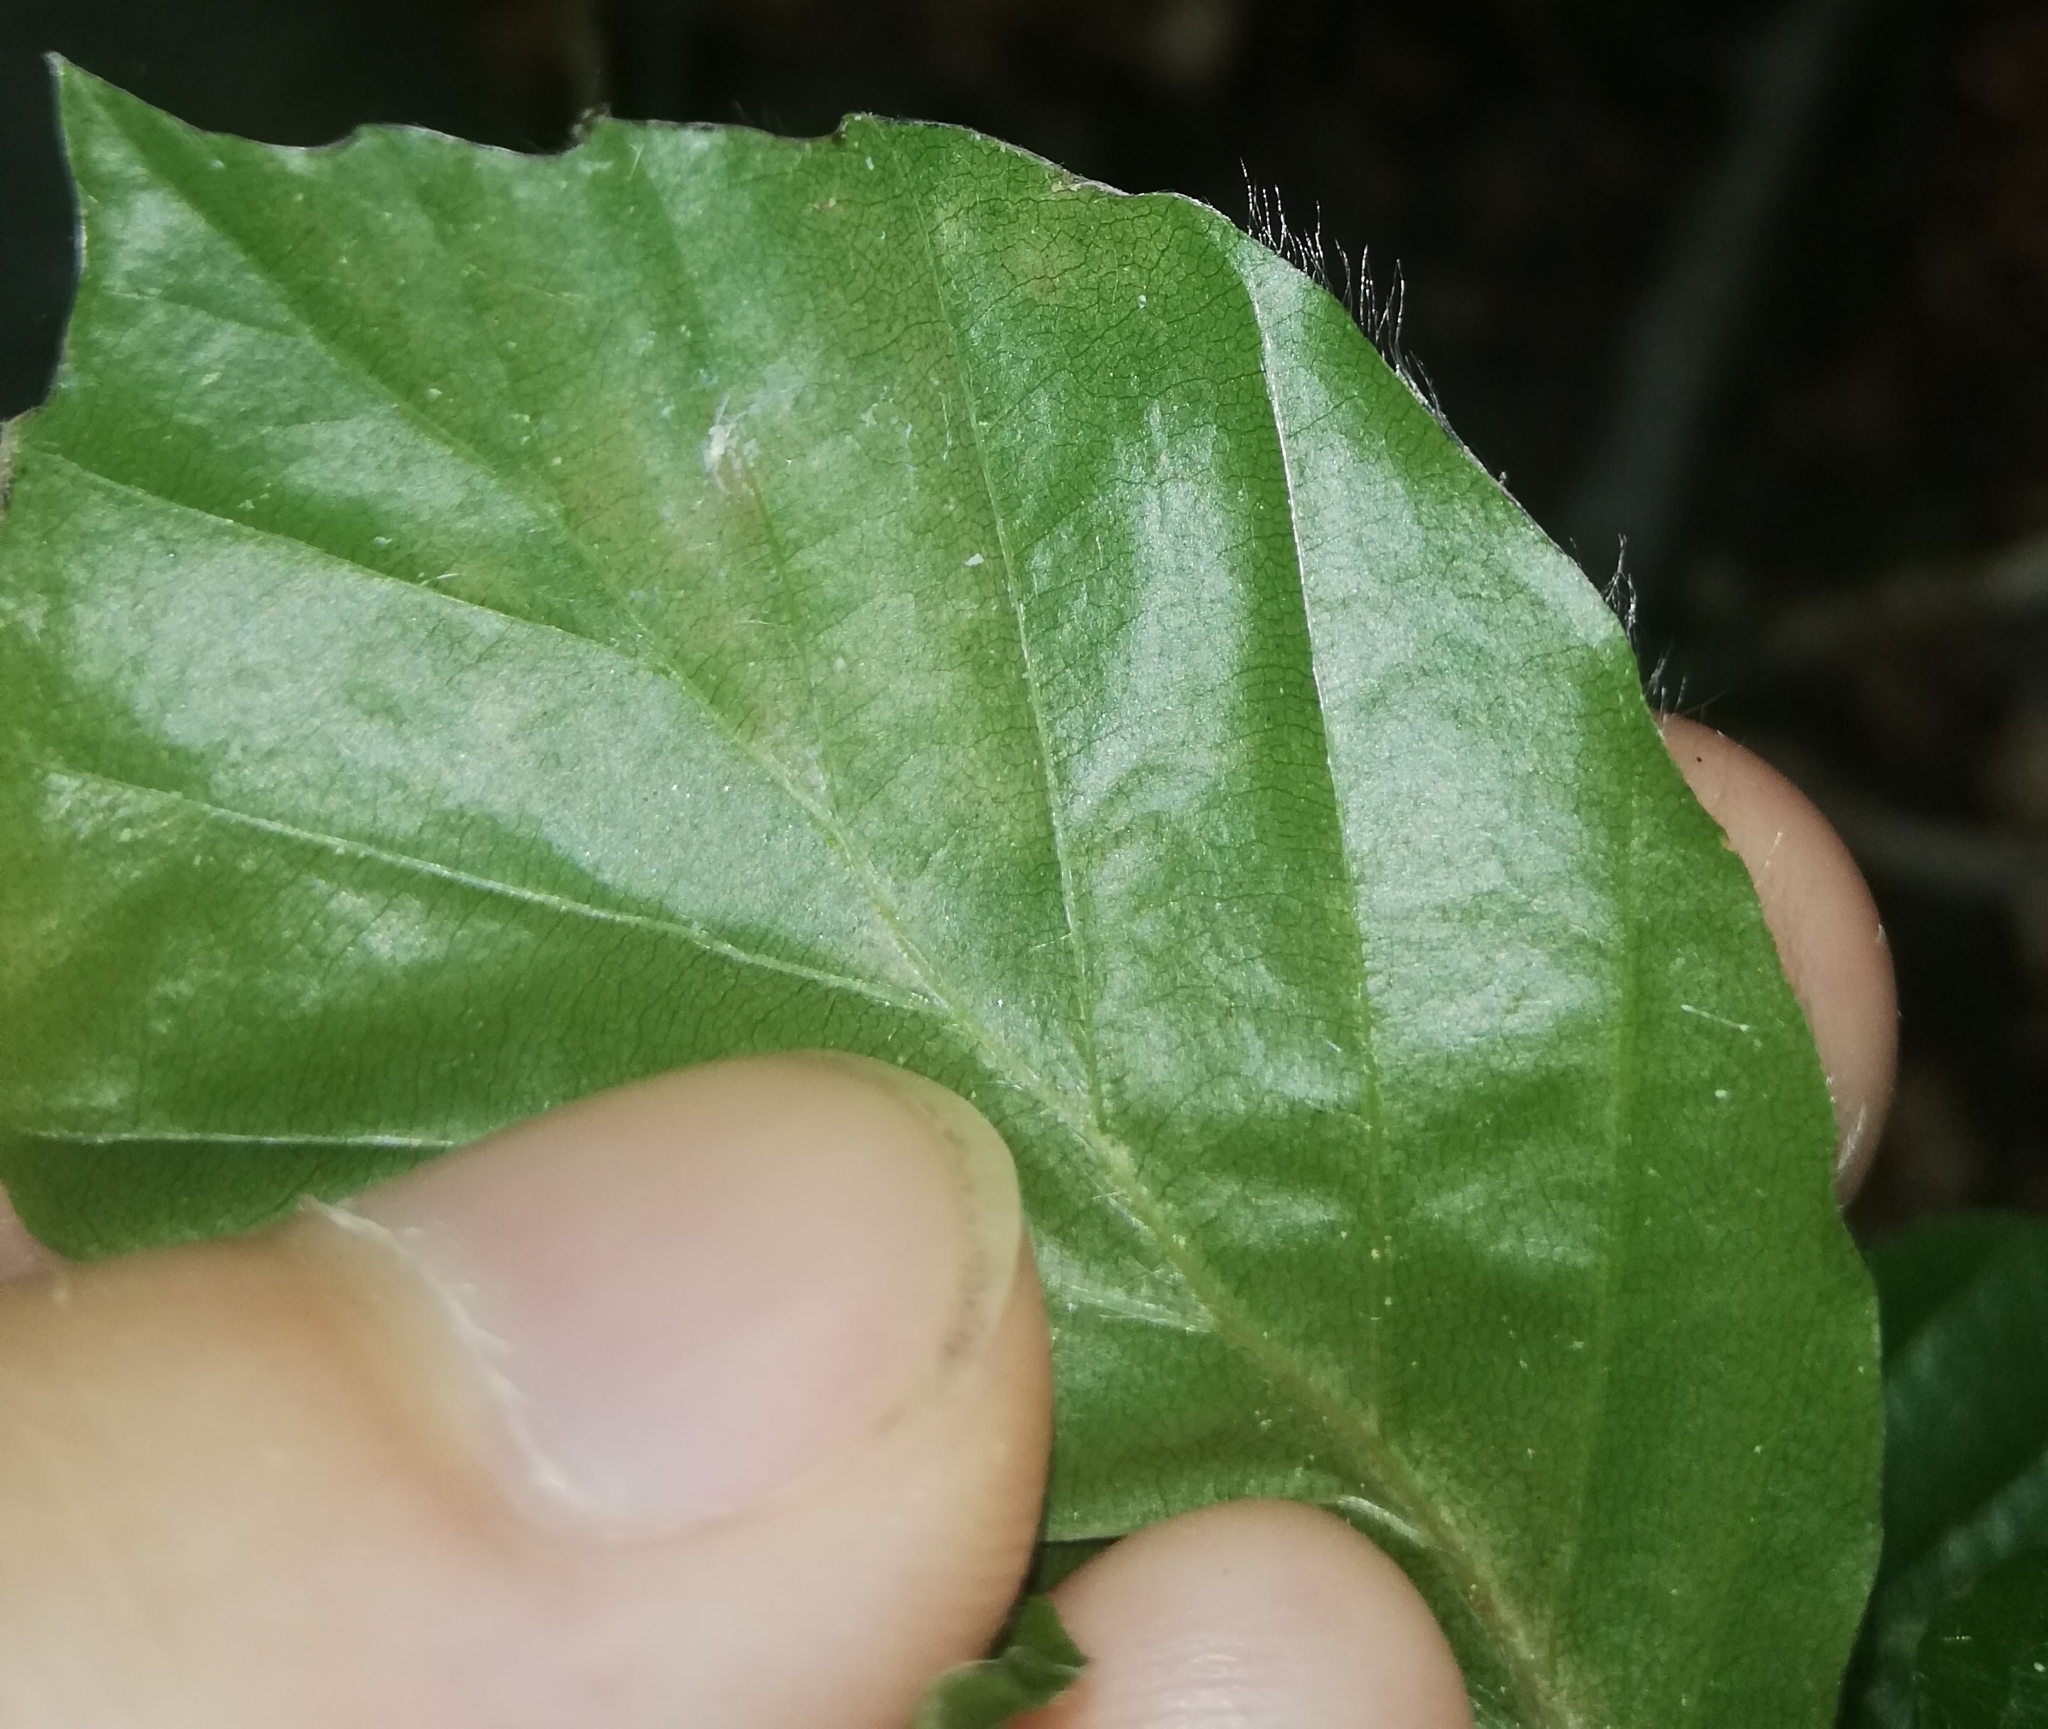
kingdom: Plantae
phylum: Tracheophyta
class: Magnoliopsida
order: Fagales
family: Fagaceae
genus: Fagus
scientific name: Fagus sylvatica
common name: Beech
